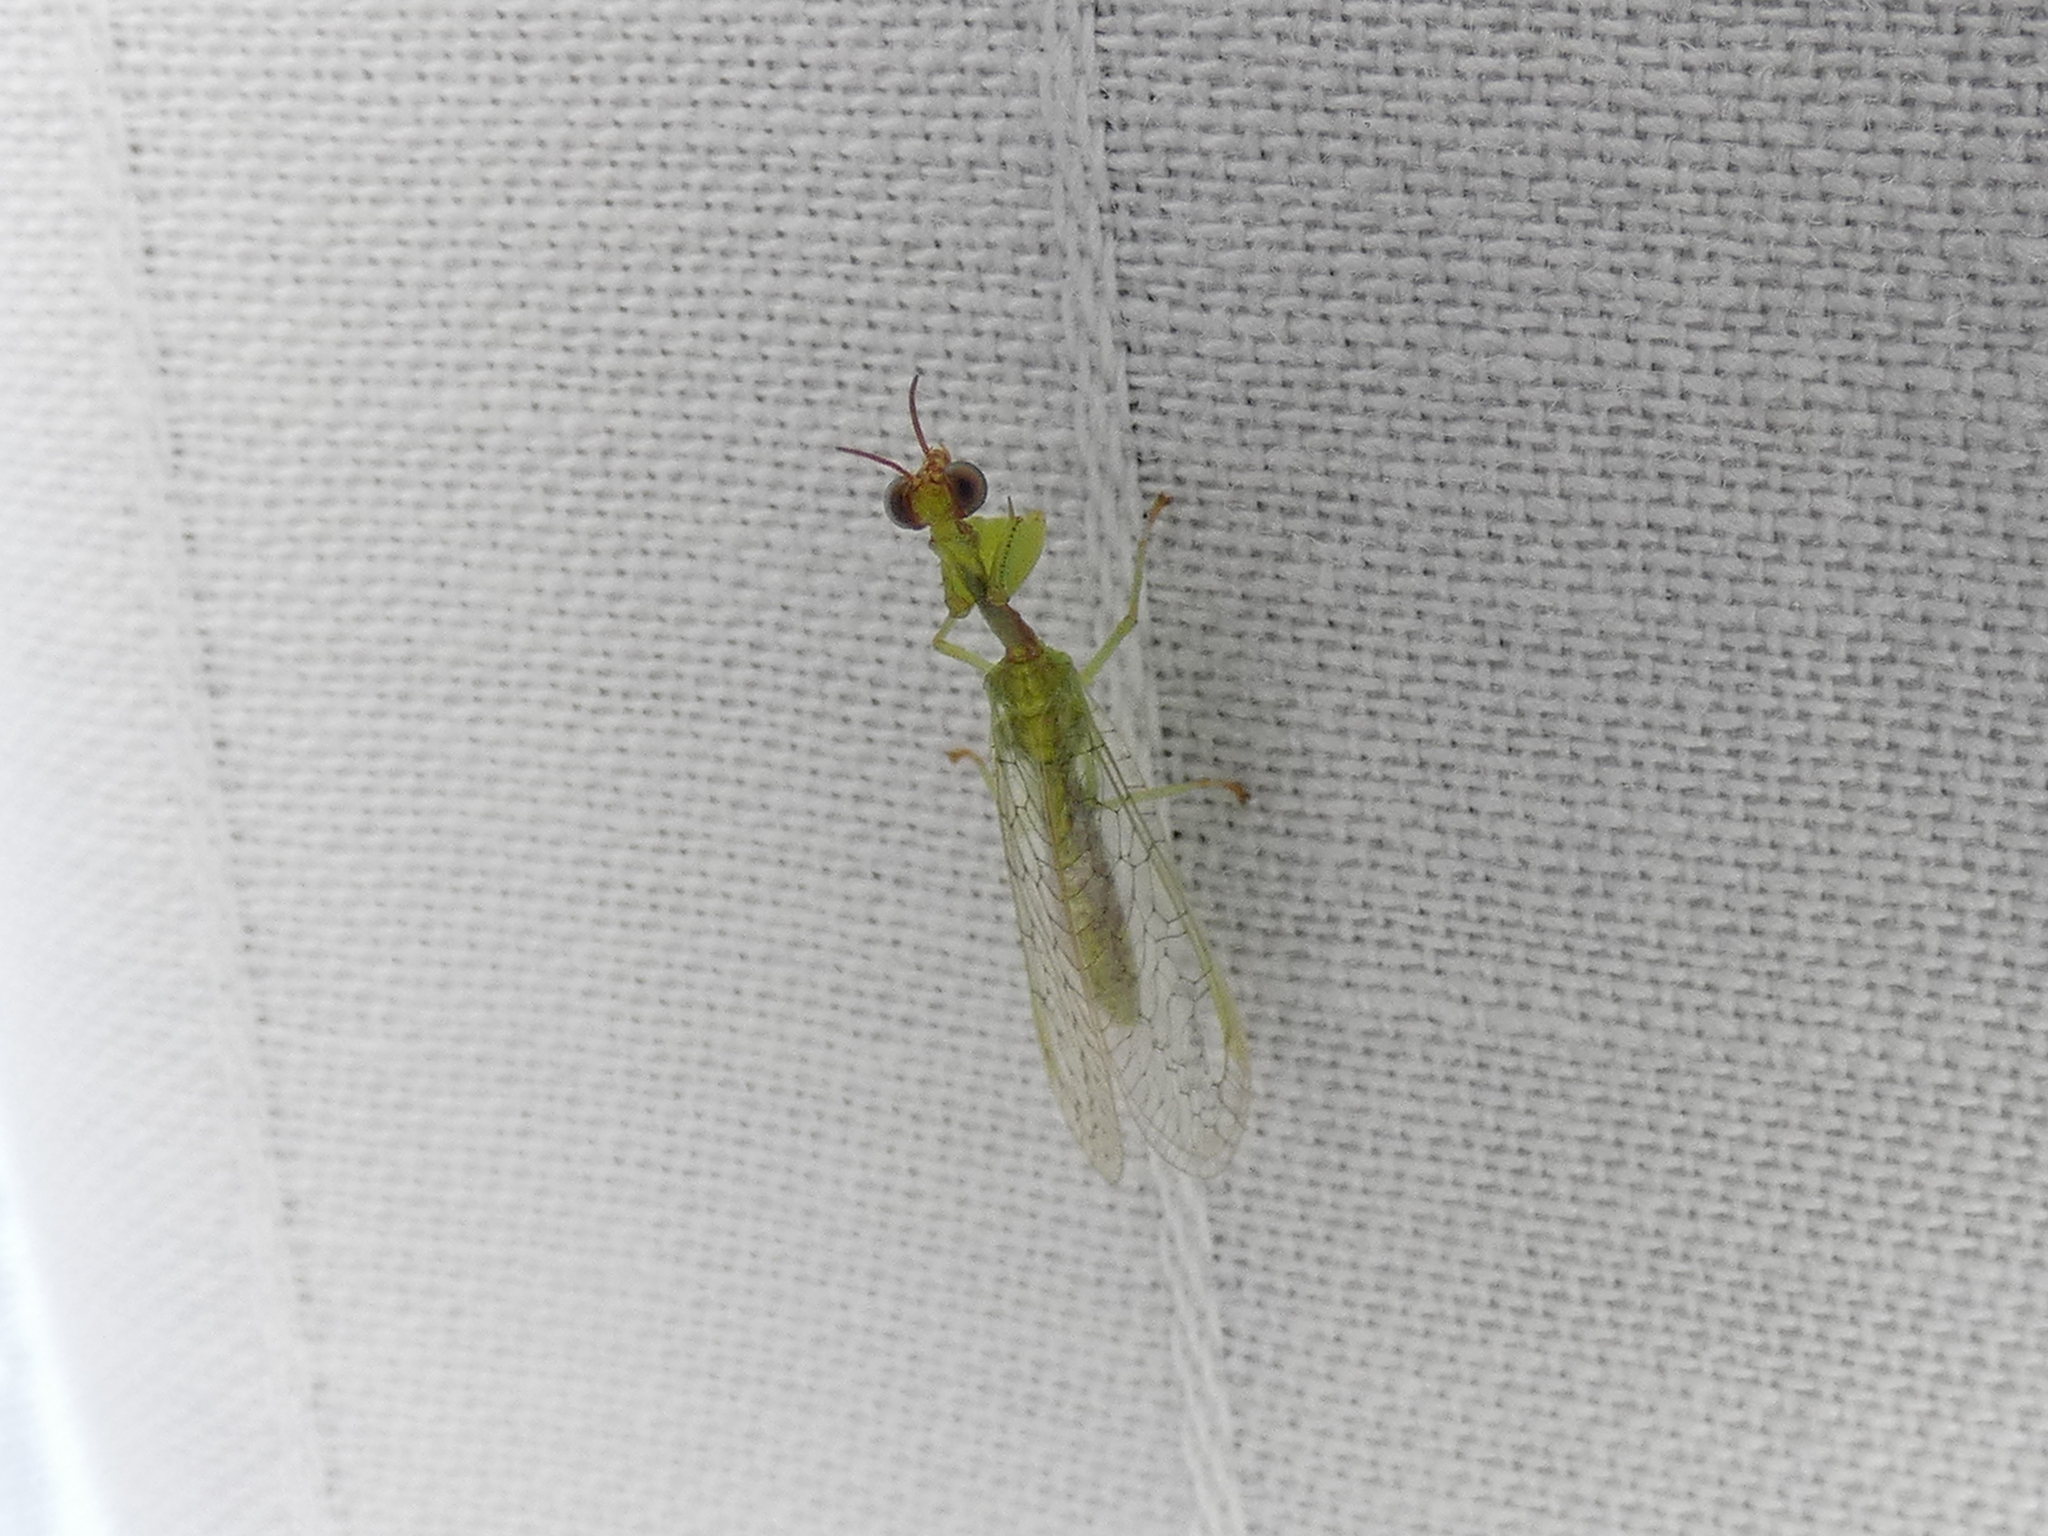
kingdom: Animalia
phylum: Arthropoda
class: Insecta
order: Neuroptera
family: Mantispidae
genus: Zeugomantispa
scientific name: Zeugomantispa minuta
